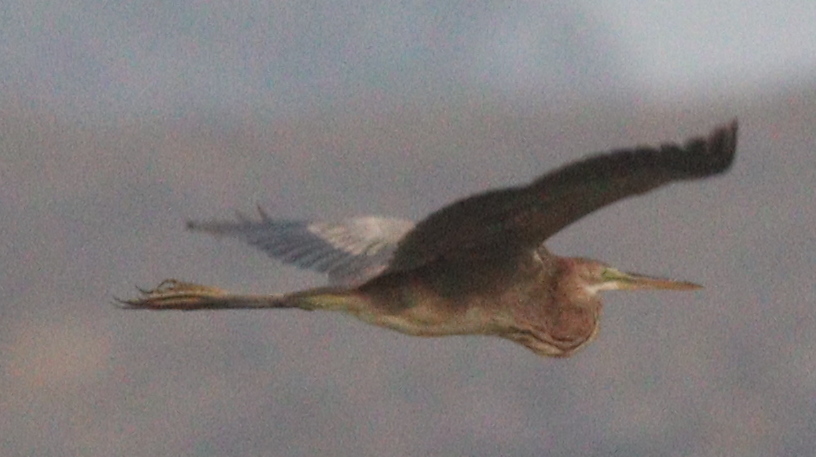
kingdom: Animalia
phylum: Chordata
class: Aves
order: Pelecaniformes
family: Ardeidae
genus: Ardea
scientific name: Ardea purpurea
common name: Purple heron
